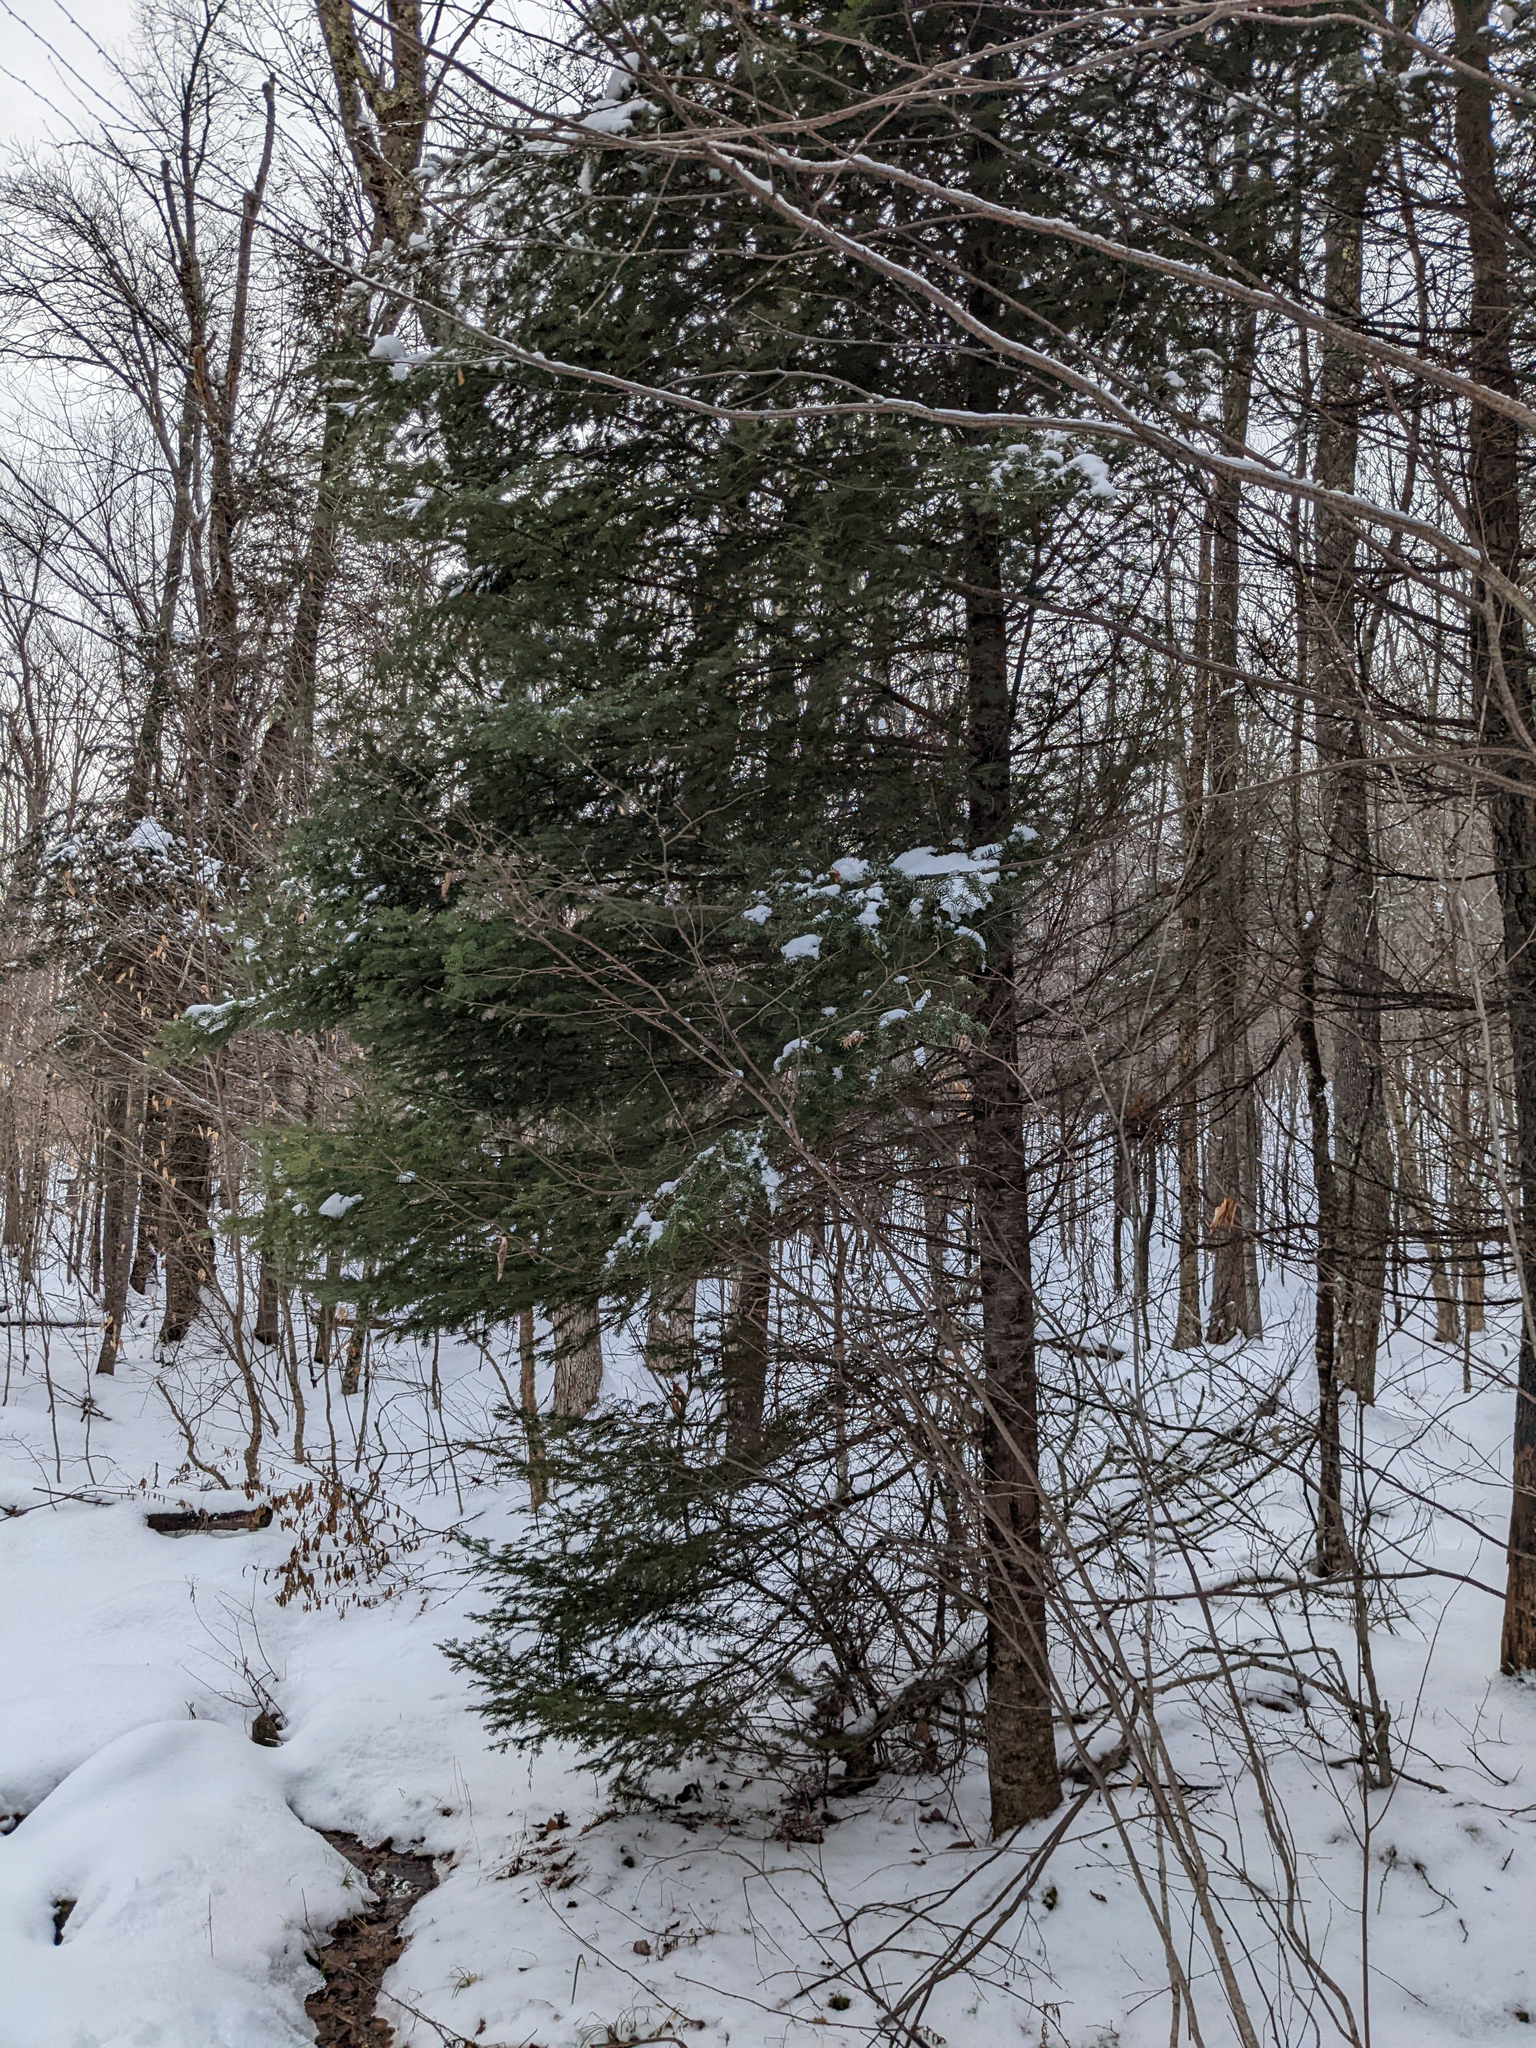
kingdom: Plantae
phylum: Tracheophyta
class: Pinopsida
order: Pinales
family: Pinaceae
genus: Abies
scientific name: Abies balsamea
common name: Balsam fir
